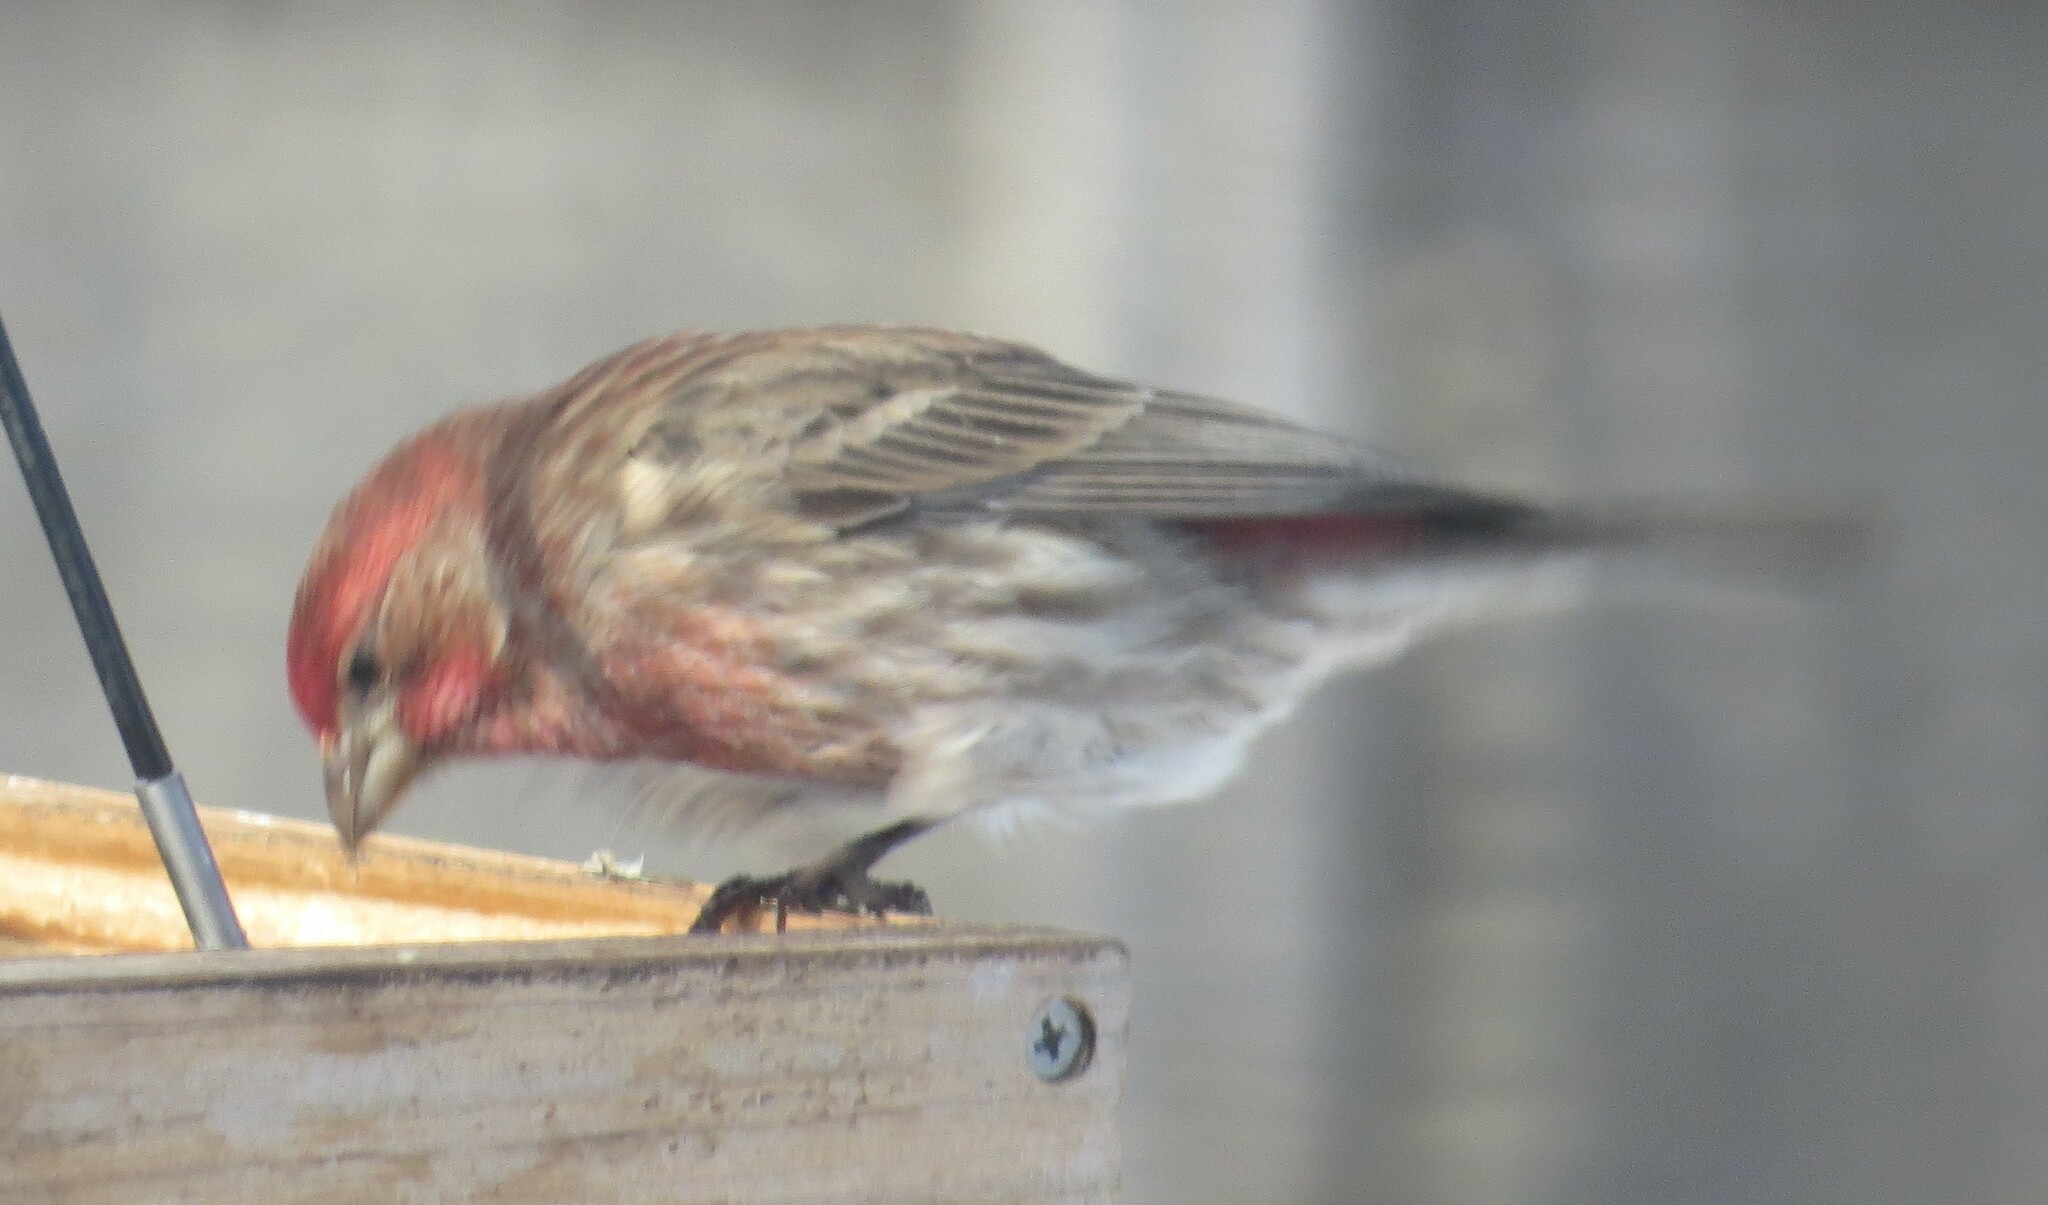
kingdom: Animalia
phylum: Chordata
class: Aves
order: Passeriformes
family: Fringillidae
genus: Haemorhous
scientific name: Haemorhous mexicanus
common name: House finch
